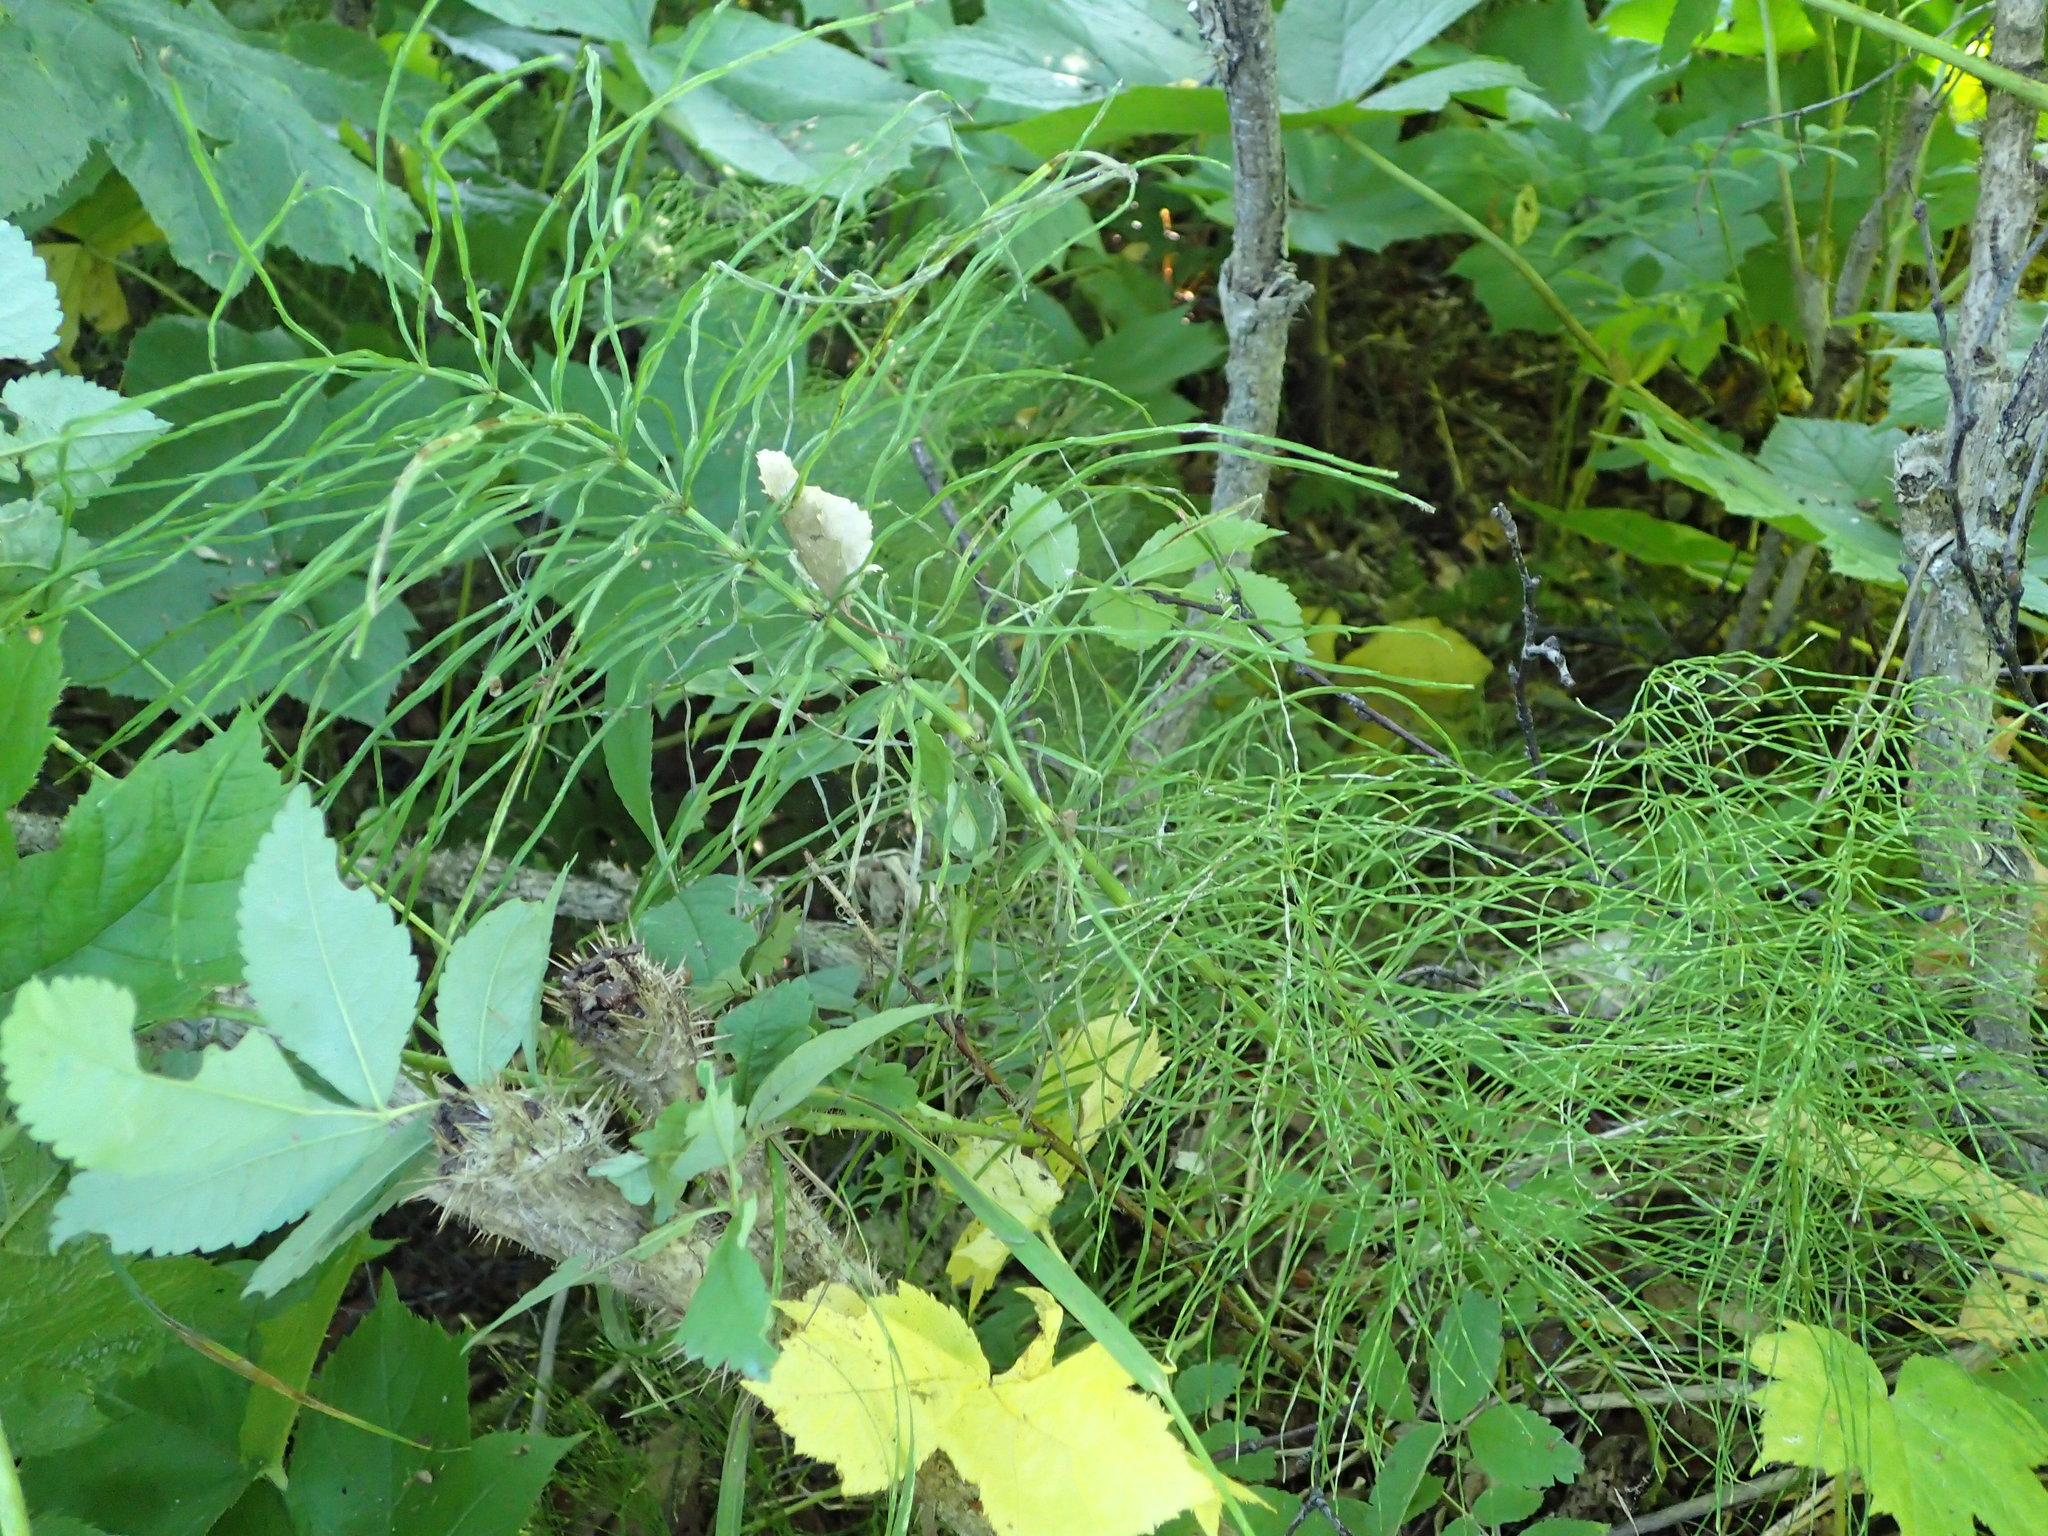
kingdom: Plantae
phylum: Tracheophyta
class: Polypodiopsida
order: Equisetales
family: Equisetaceae
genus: Equisetum
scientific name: Equisetum arvense
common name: Field horsetail
